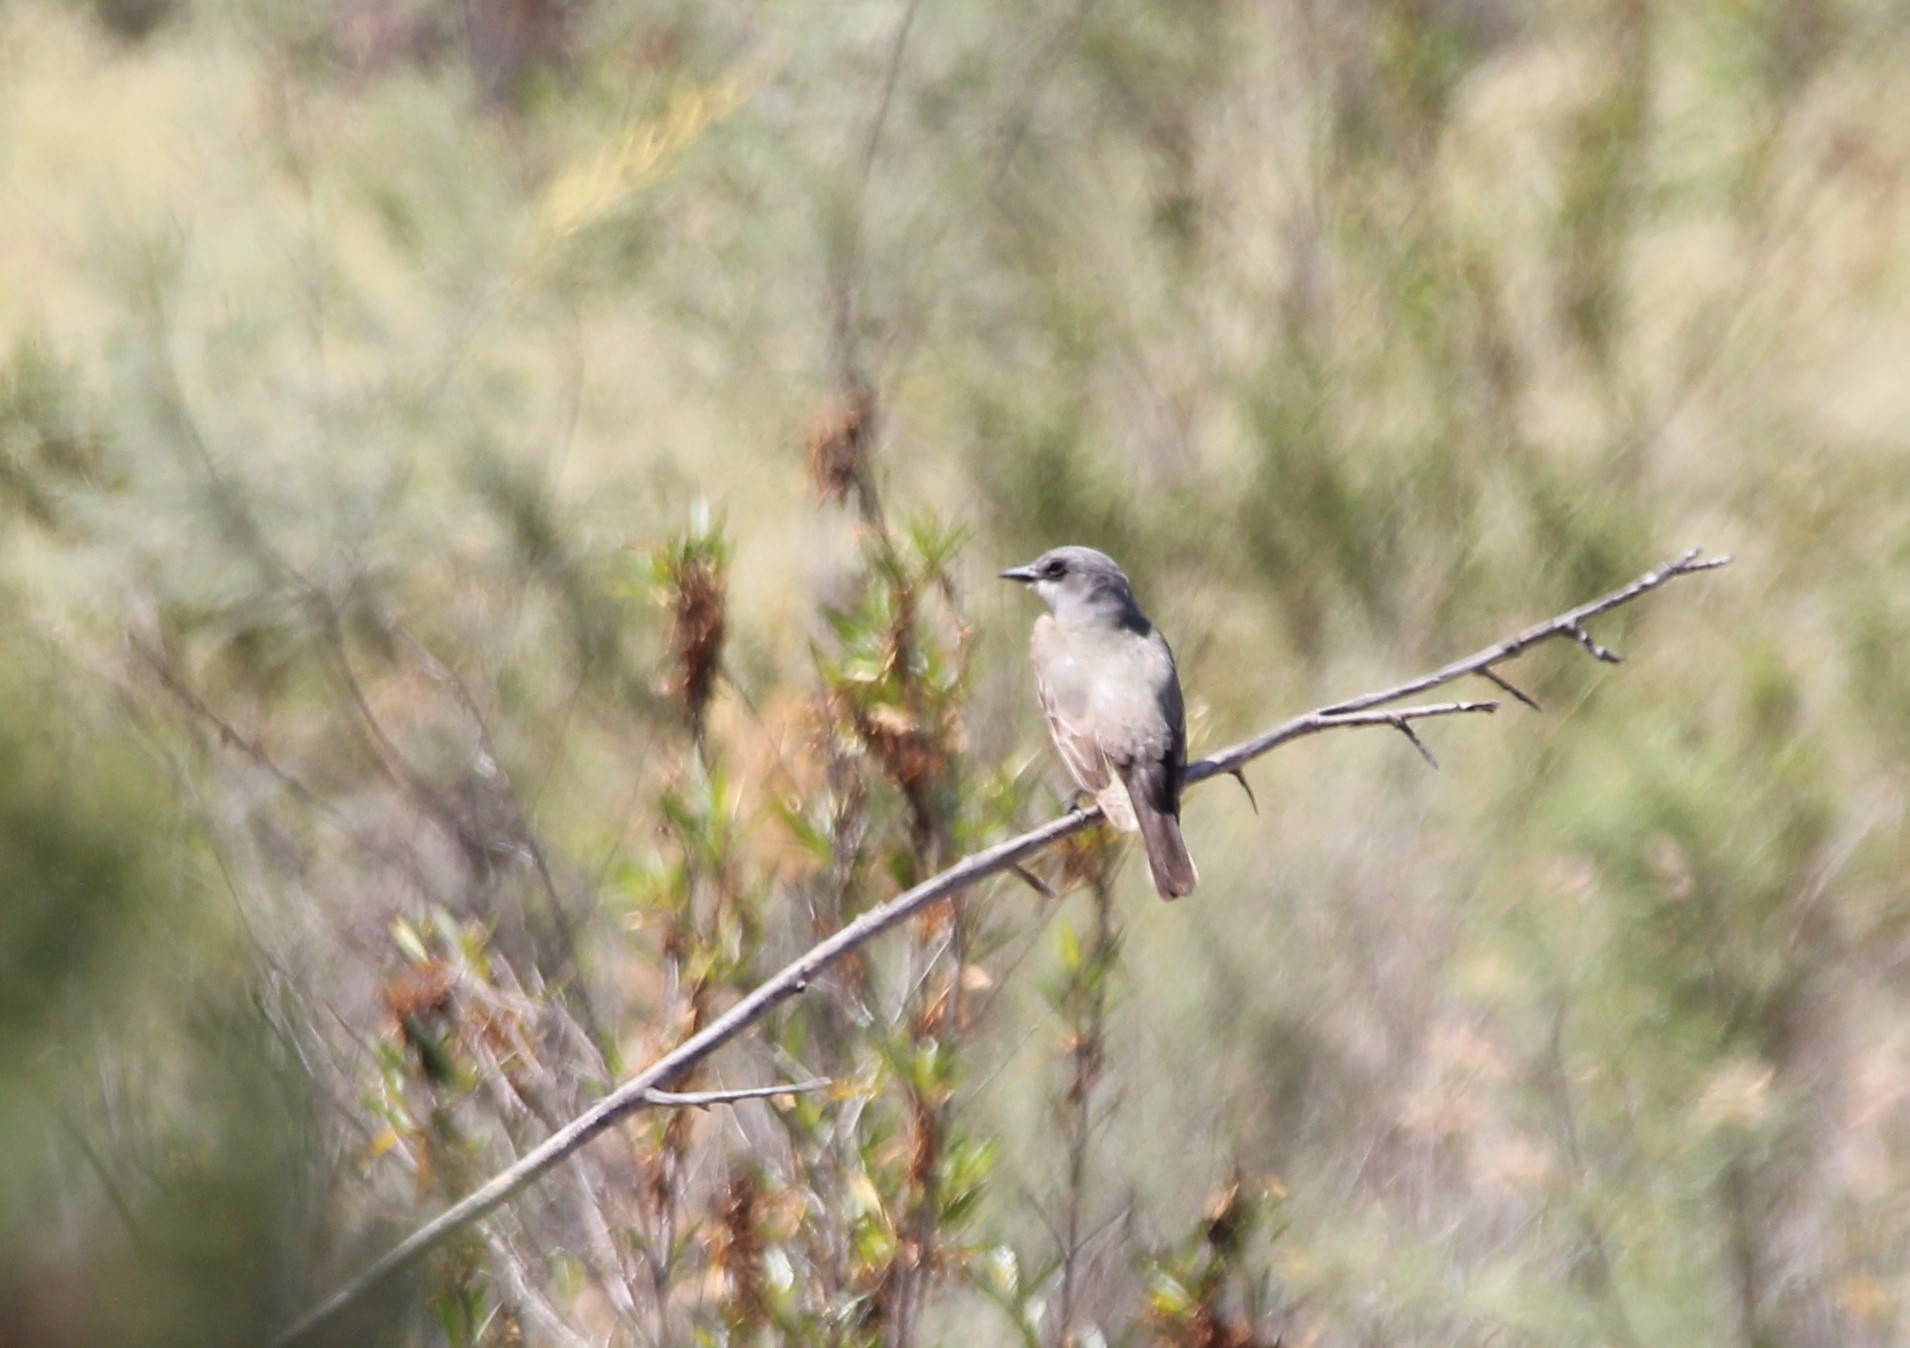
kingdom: Animalia
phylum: Chordata
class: Aves
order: Passeriformes
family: Tyrannidae
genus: Tyrannus
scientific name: Tyrannus vociferans
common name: Cassin's kingbird
